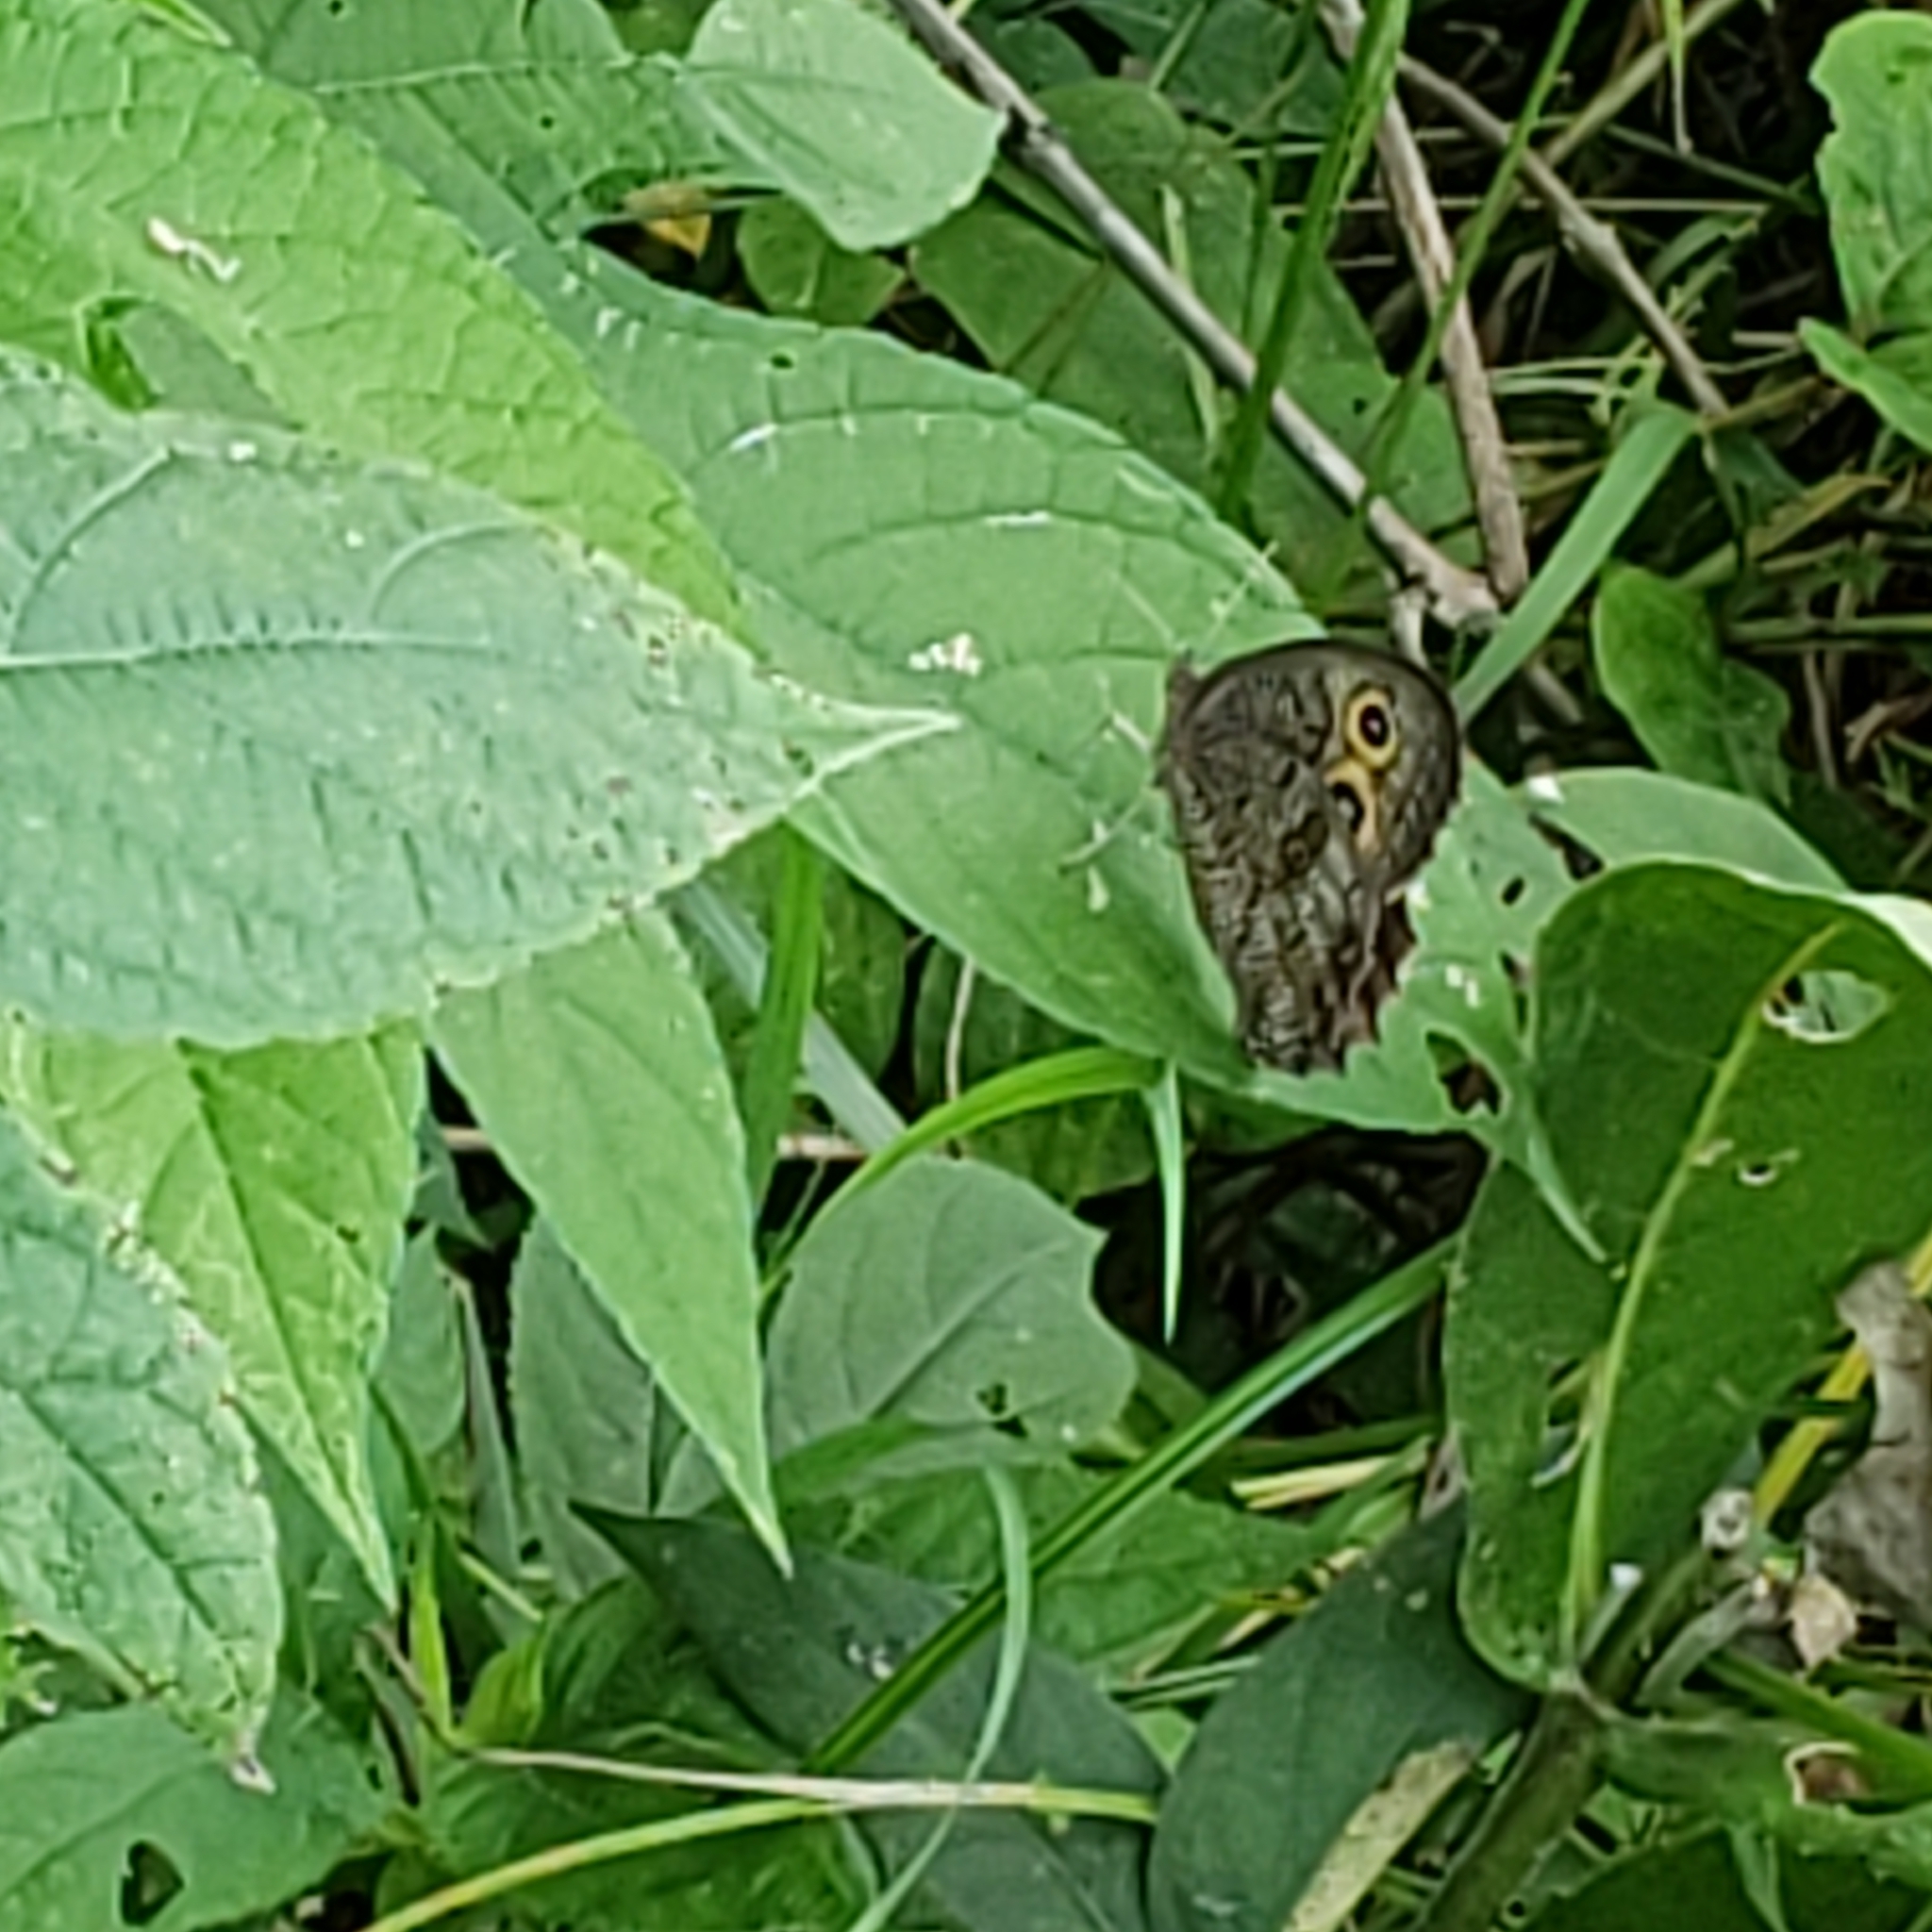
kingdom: Animalia
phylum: Arthropoda
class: Insecta
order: Lepidoptera
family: Nymphalidae
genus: Cercyonis
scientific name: Cercyonis pegala
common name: Common wood-nymph
